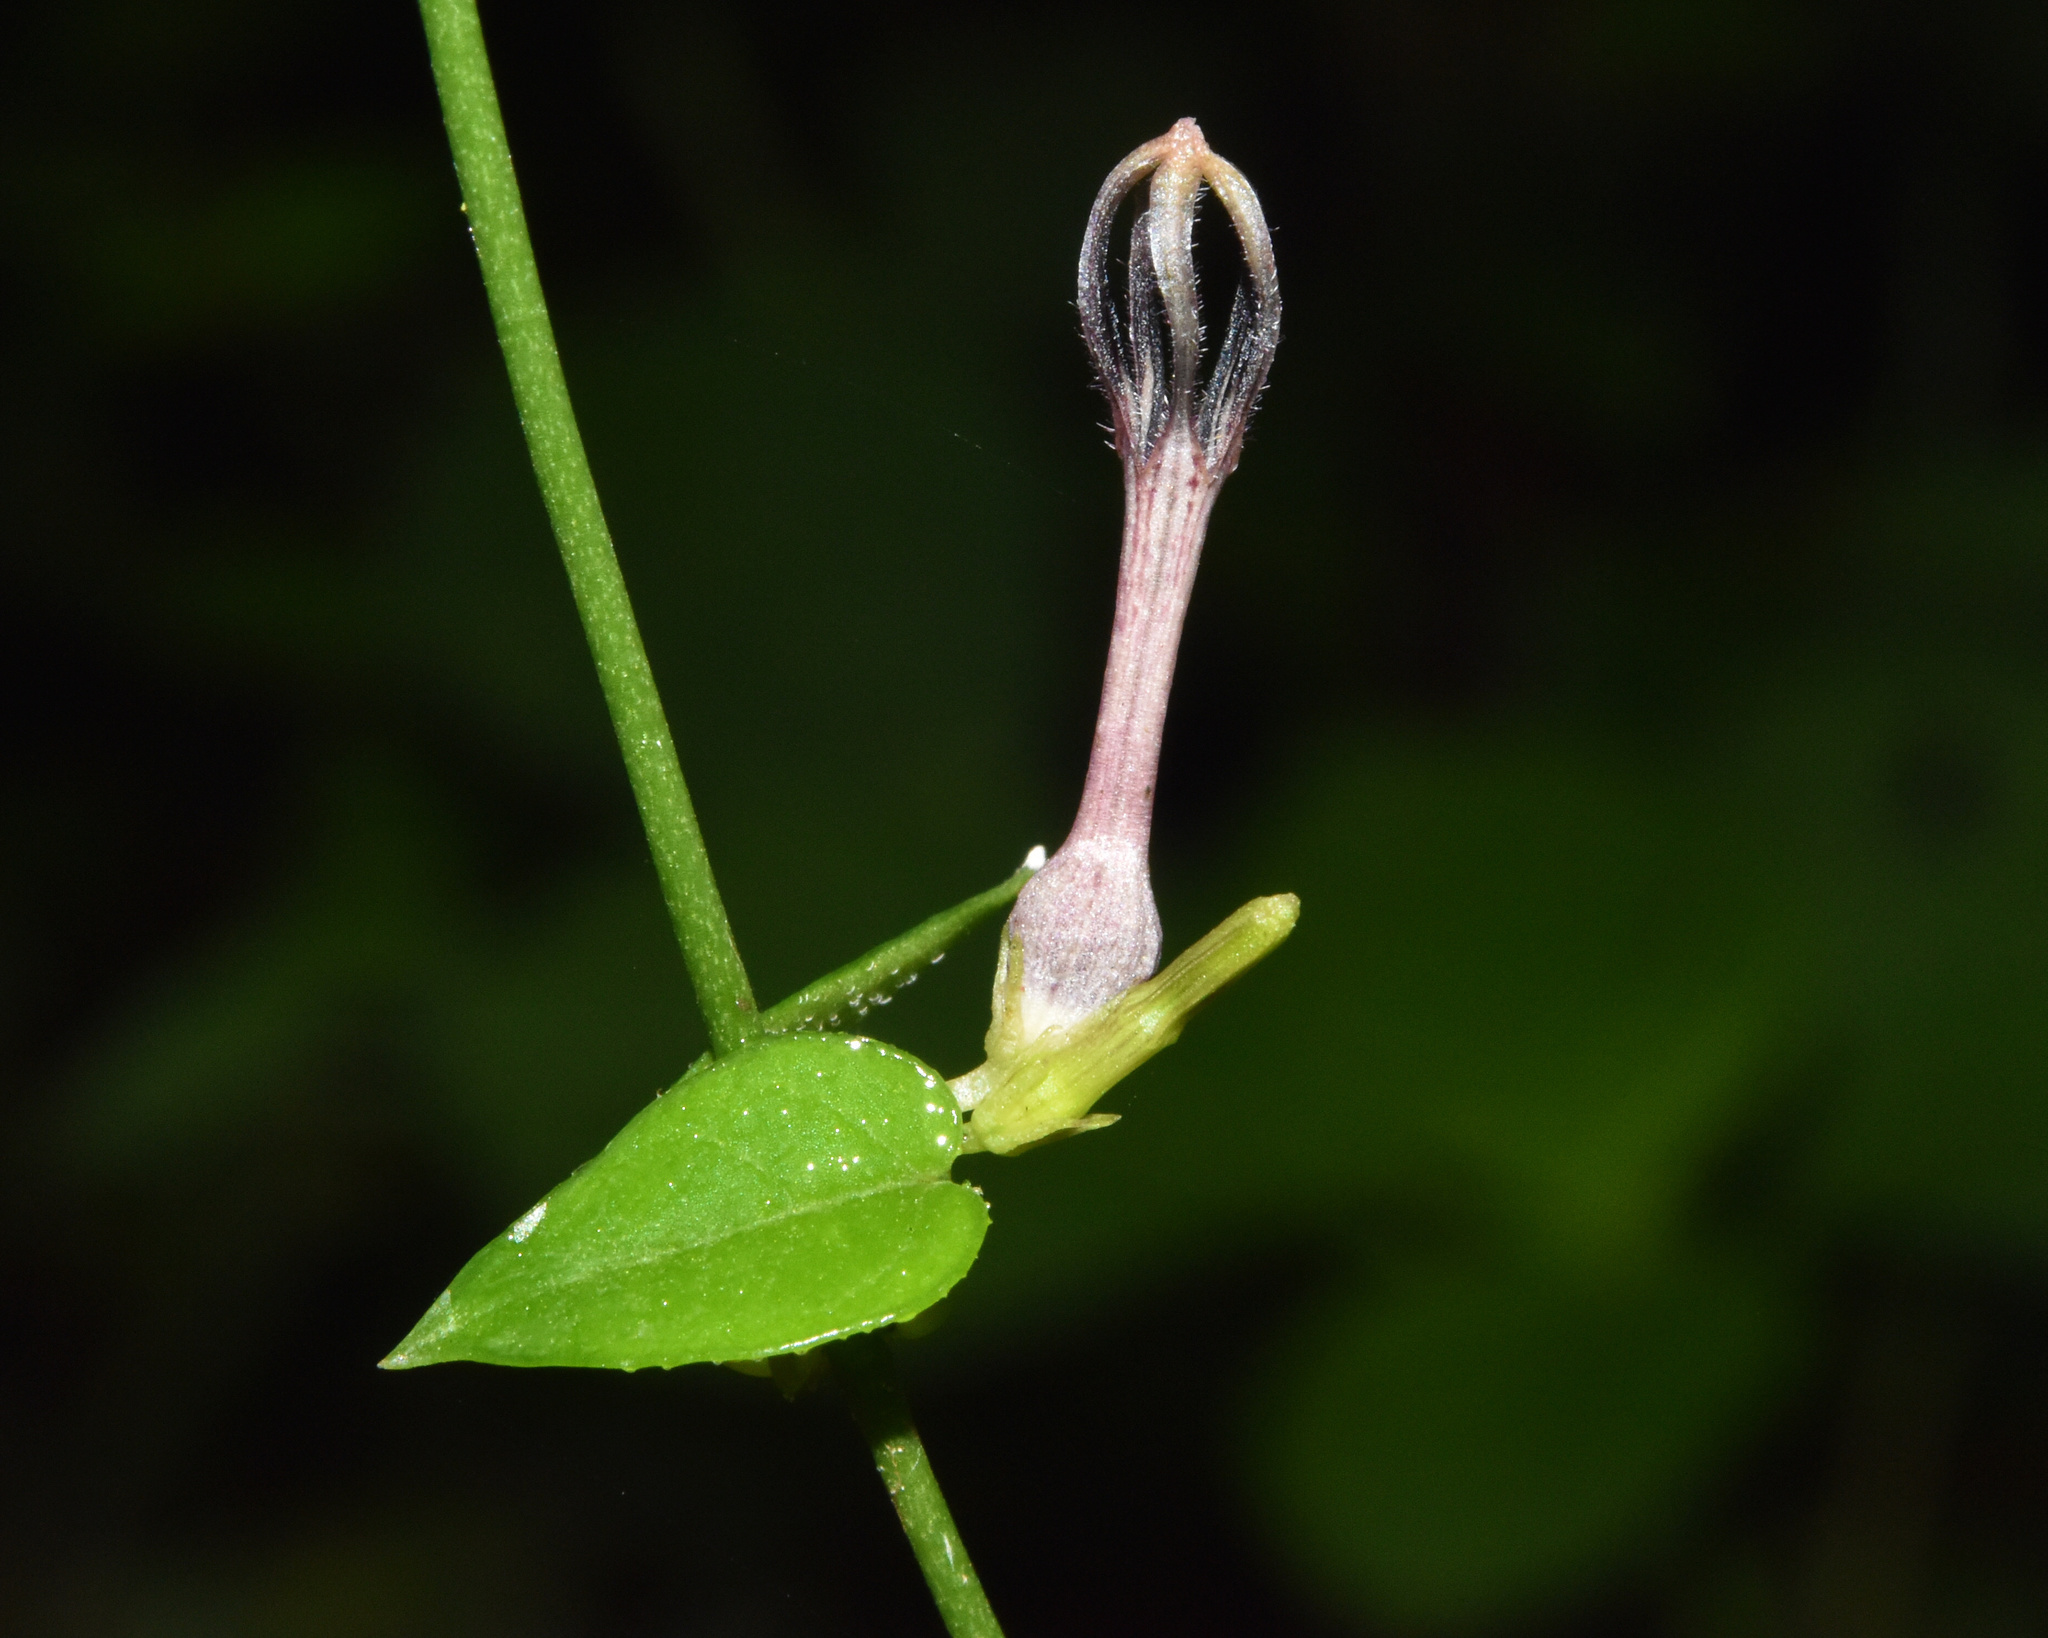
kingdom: Plantae
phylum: Tracheophyta
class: Magnoliopsida
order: Gentianales
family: Apocynaceae
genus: Ceropegia
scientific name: Ceropegia linearis
